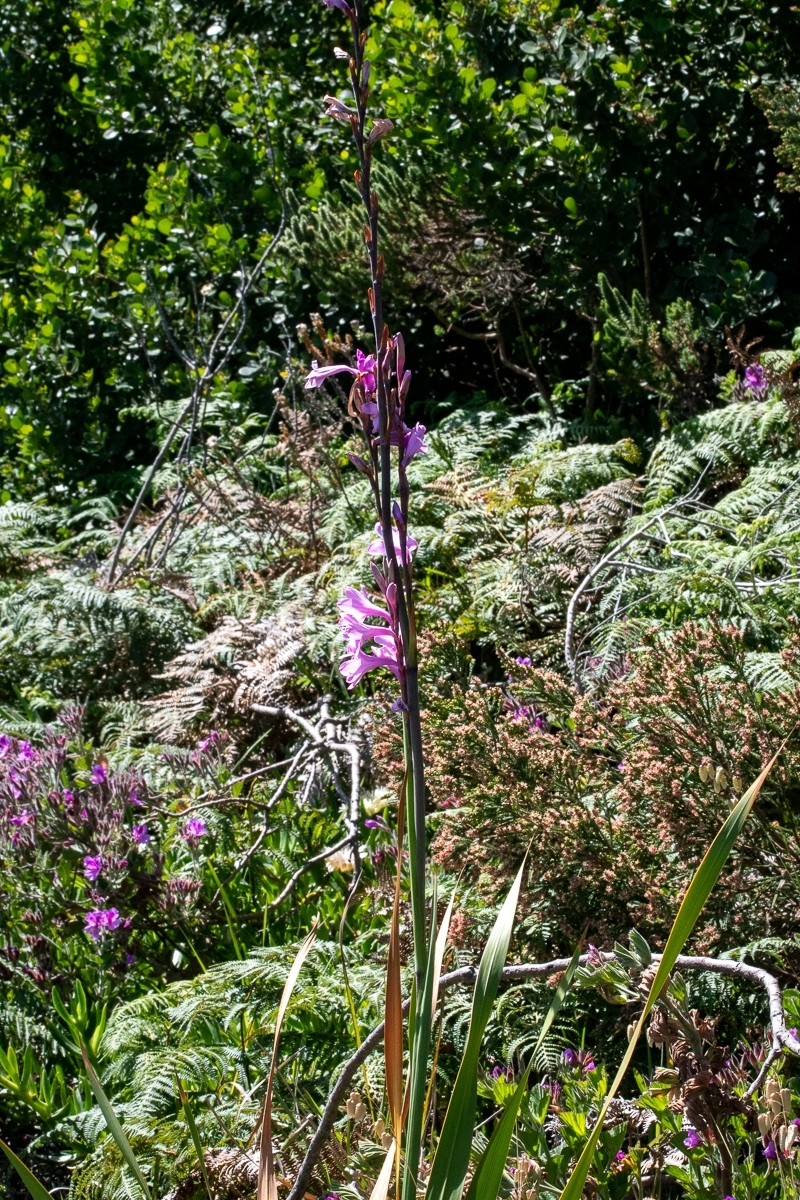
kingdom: Plantae
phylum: Tracheophyta
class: Liliopsida
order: Asparagales
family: Iridaceae
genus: Watsonia
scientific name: Watsonia borbonica
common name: Bugle-lily
